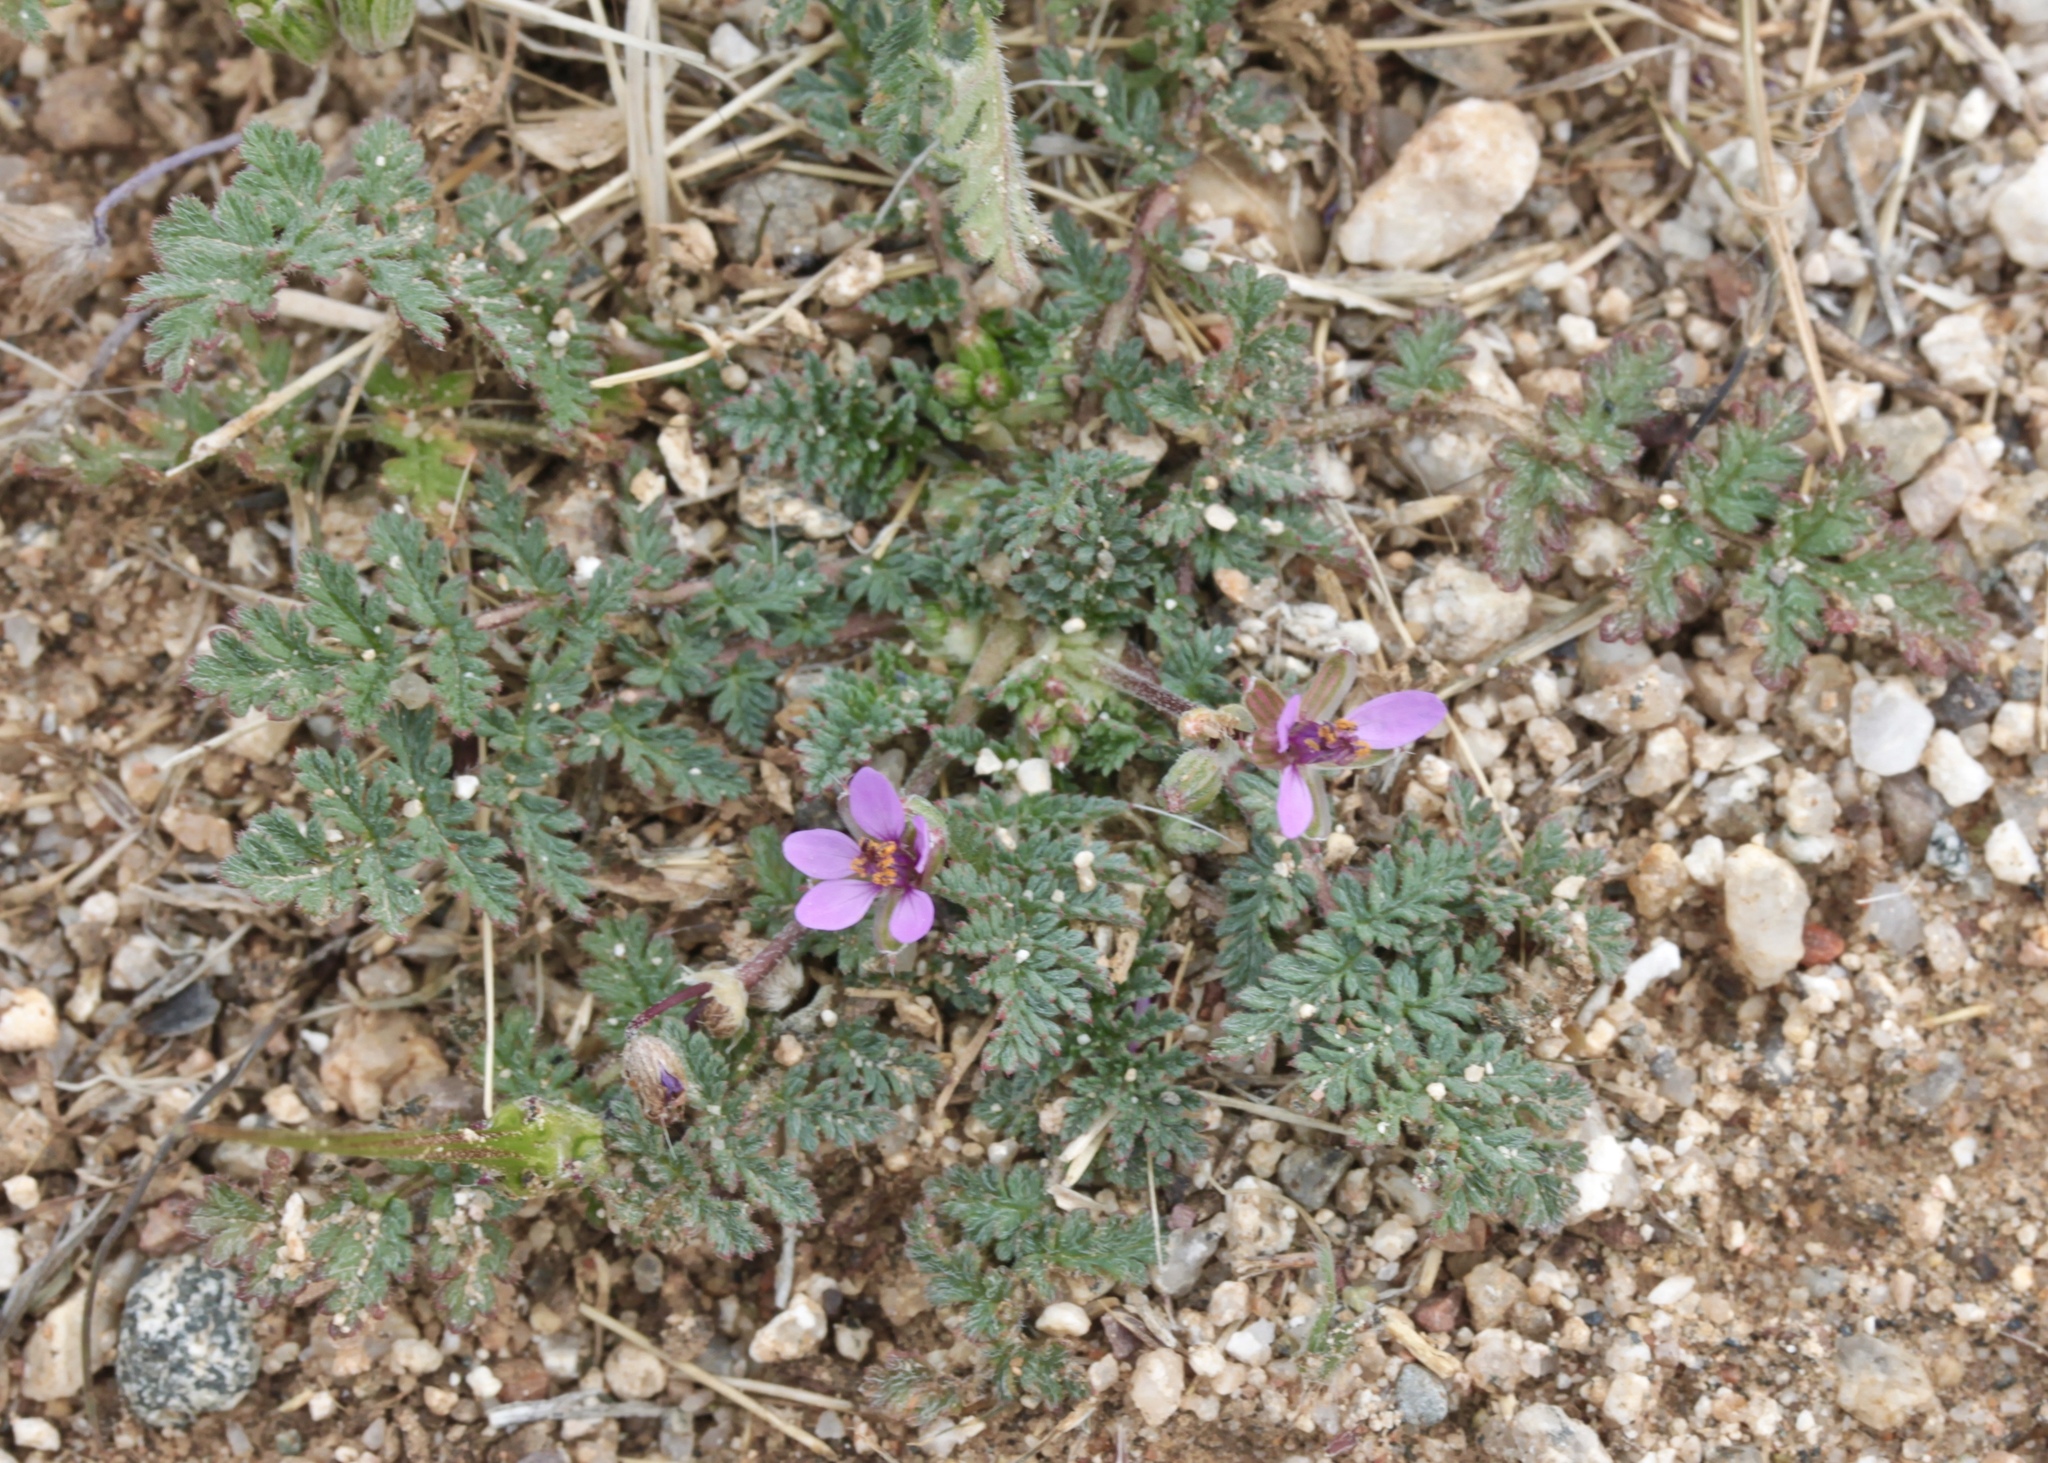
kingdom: Plantae
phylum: Tracheophyta
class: Magnoliopsida
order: Geraniales
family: Geraniaceae
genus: Erodium
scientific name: Erodium cicutarium
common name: Common stork's-bill
